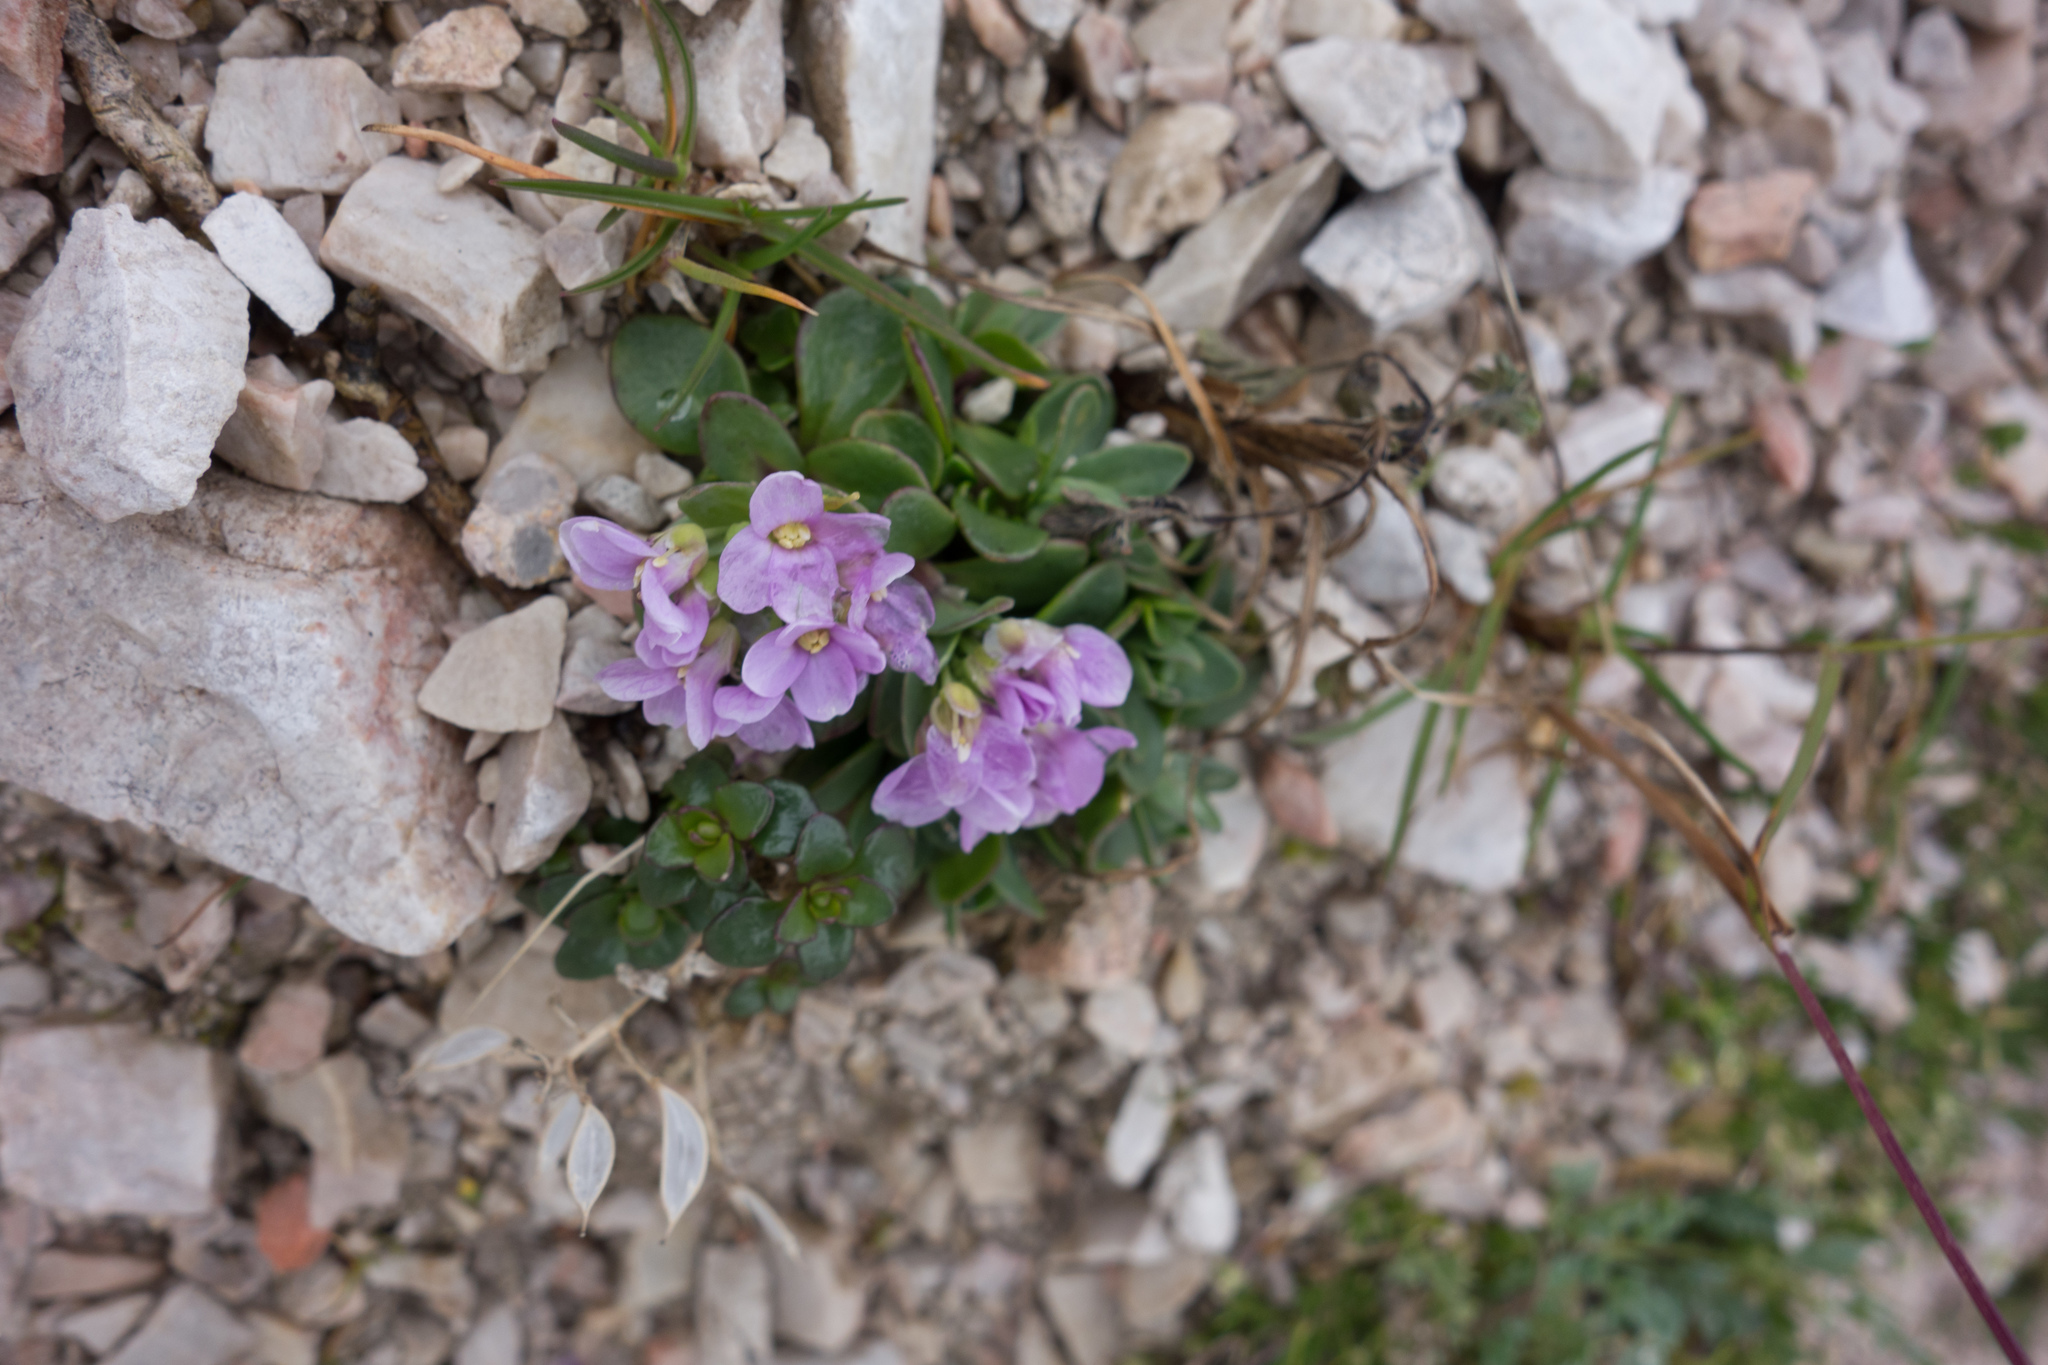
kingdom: Plantae
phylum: Tracheophyta
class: Magnoliopsida
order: Brassicales
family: Brassicaceae
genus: Noccaea
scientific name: Noccaea rotundifolia
